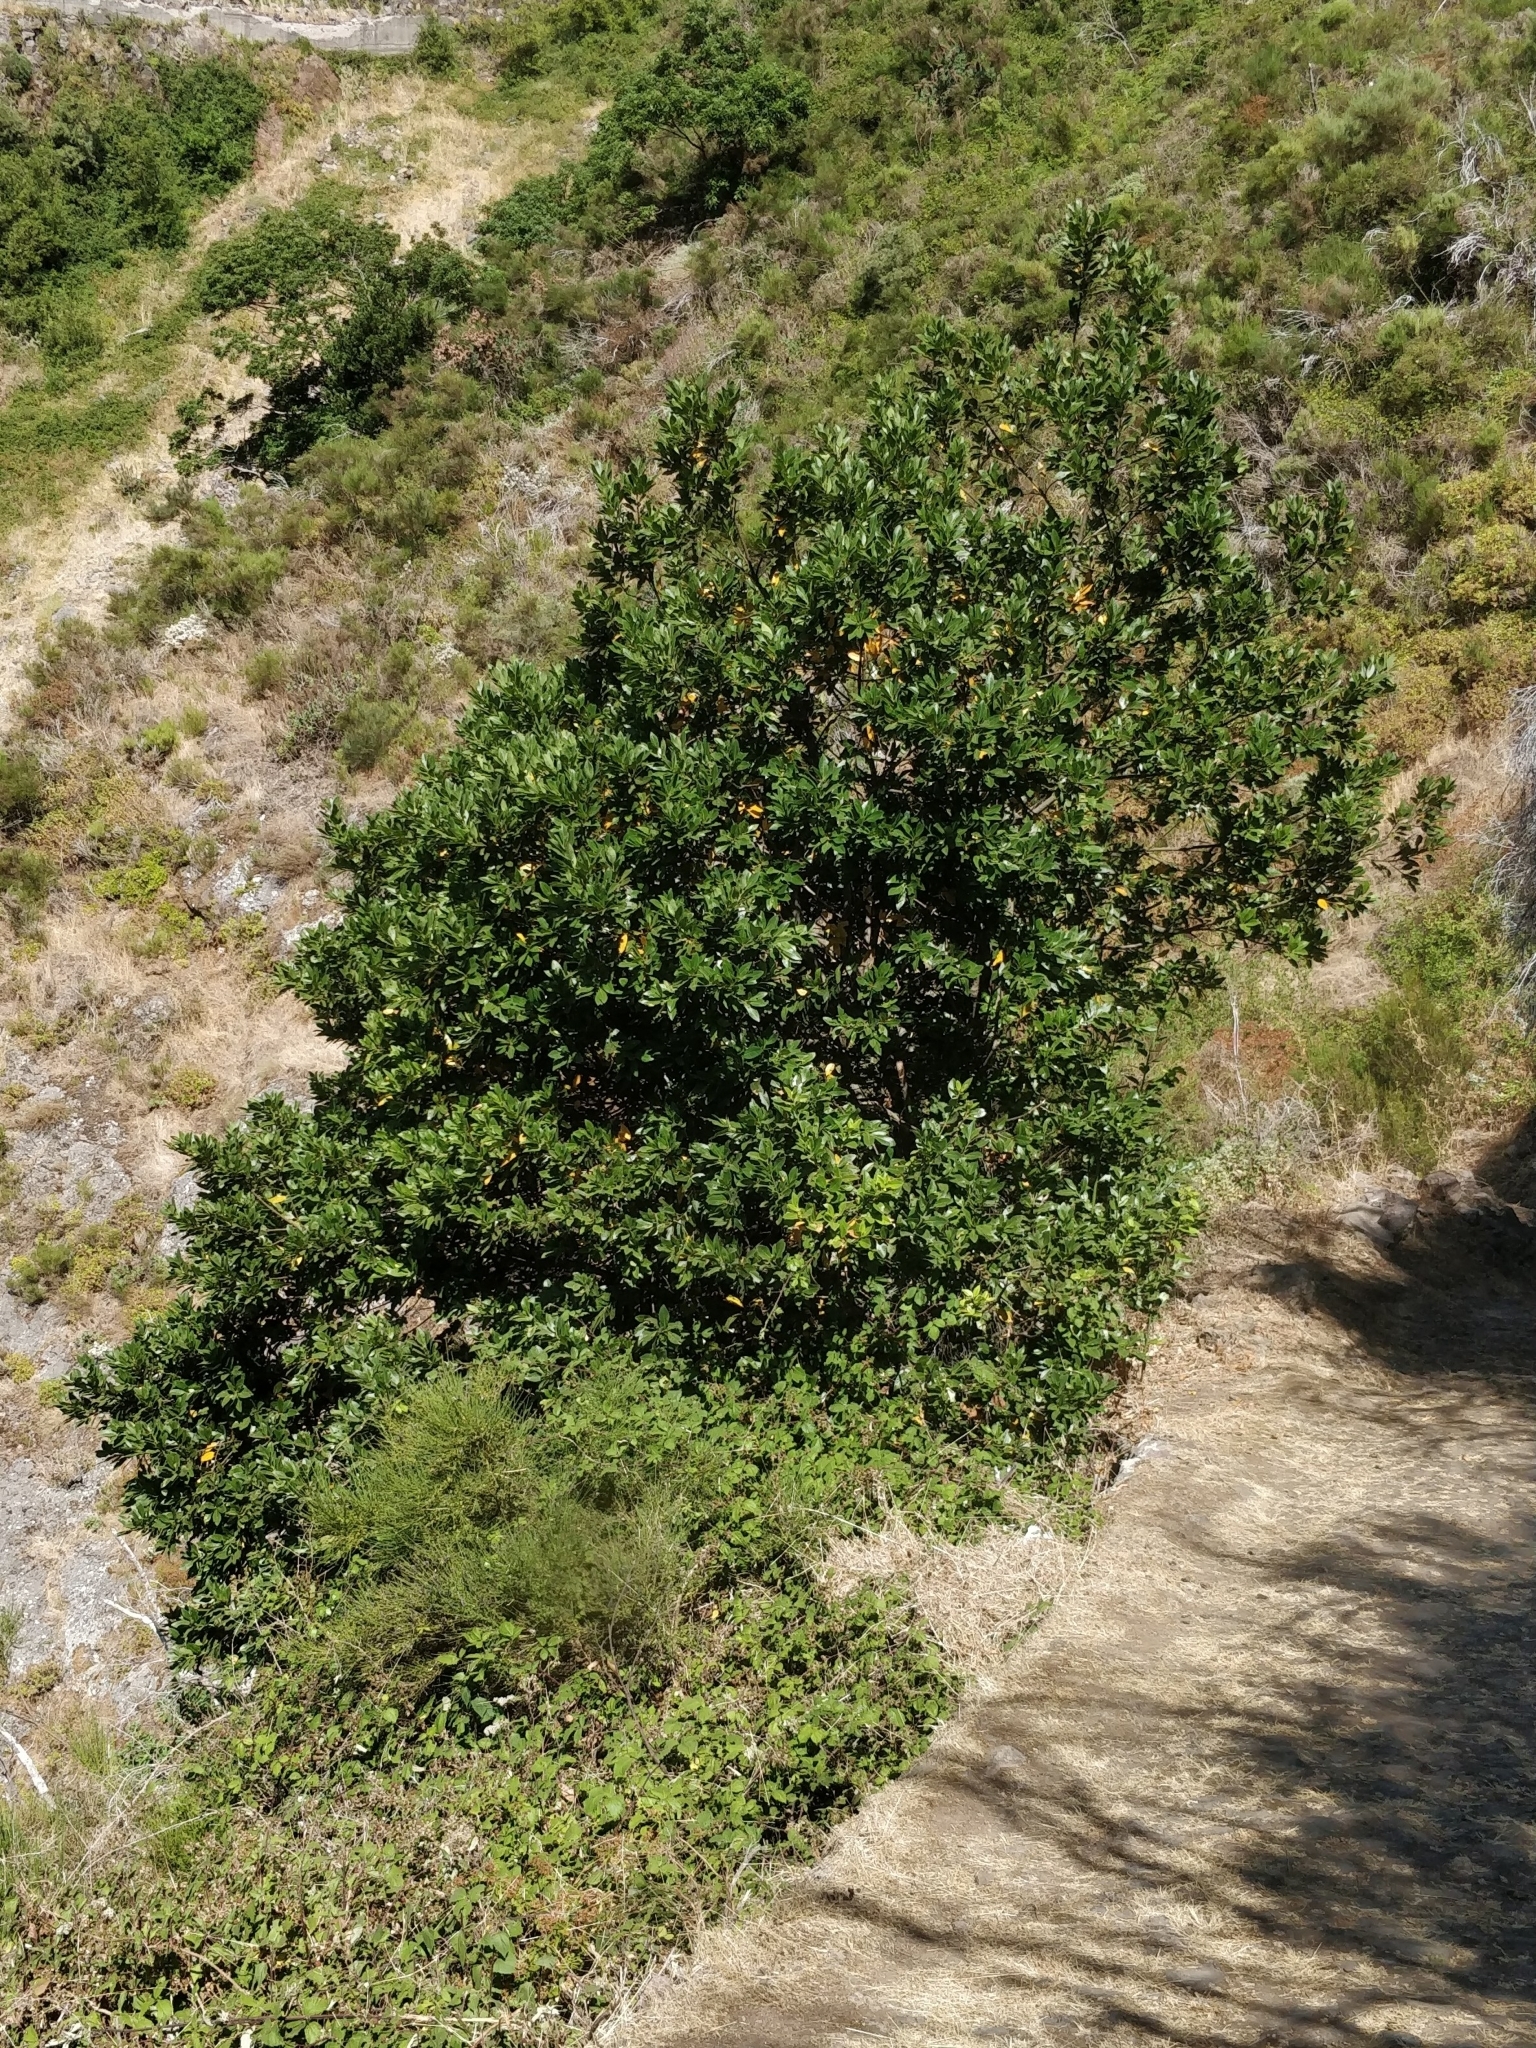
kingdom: Plantae
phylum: Tracheophyta
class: Magnoliopsida
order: Laurales
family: Lauraceae
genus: Laurus
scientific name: Laurus novocanariensis
